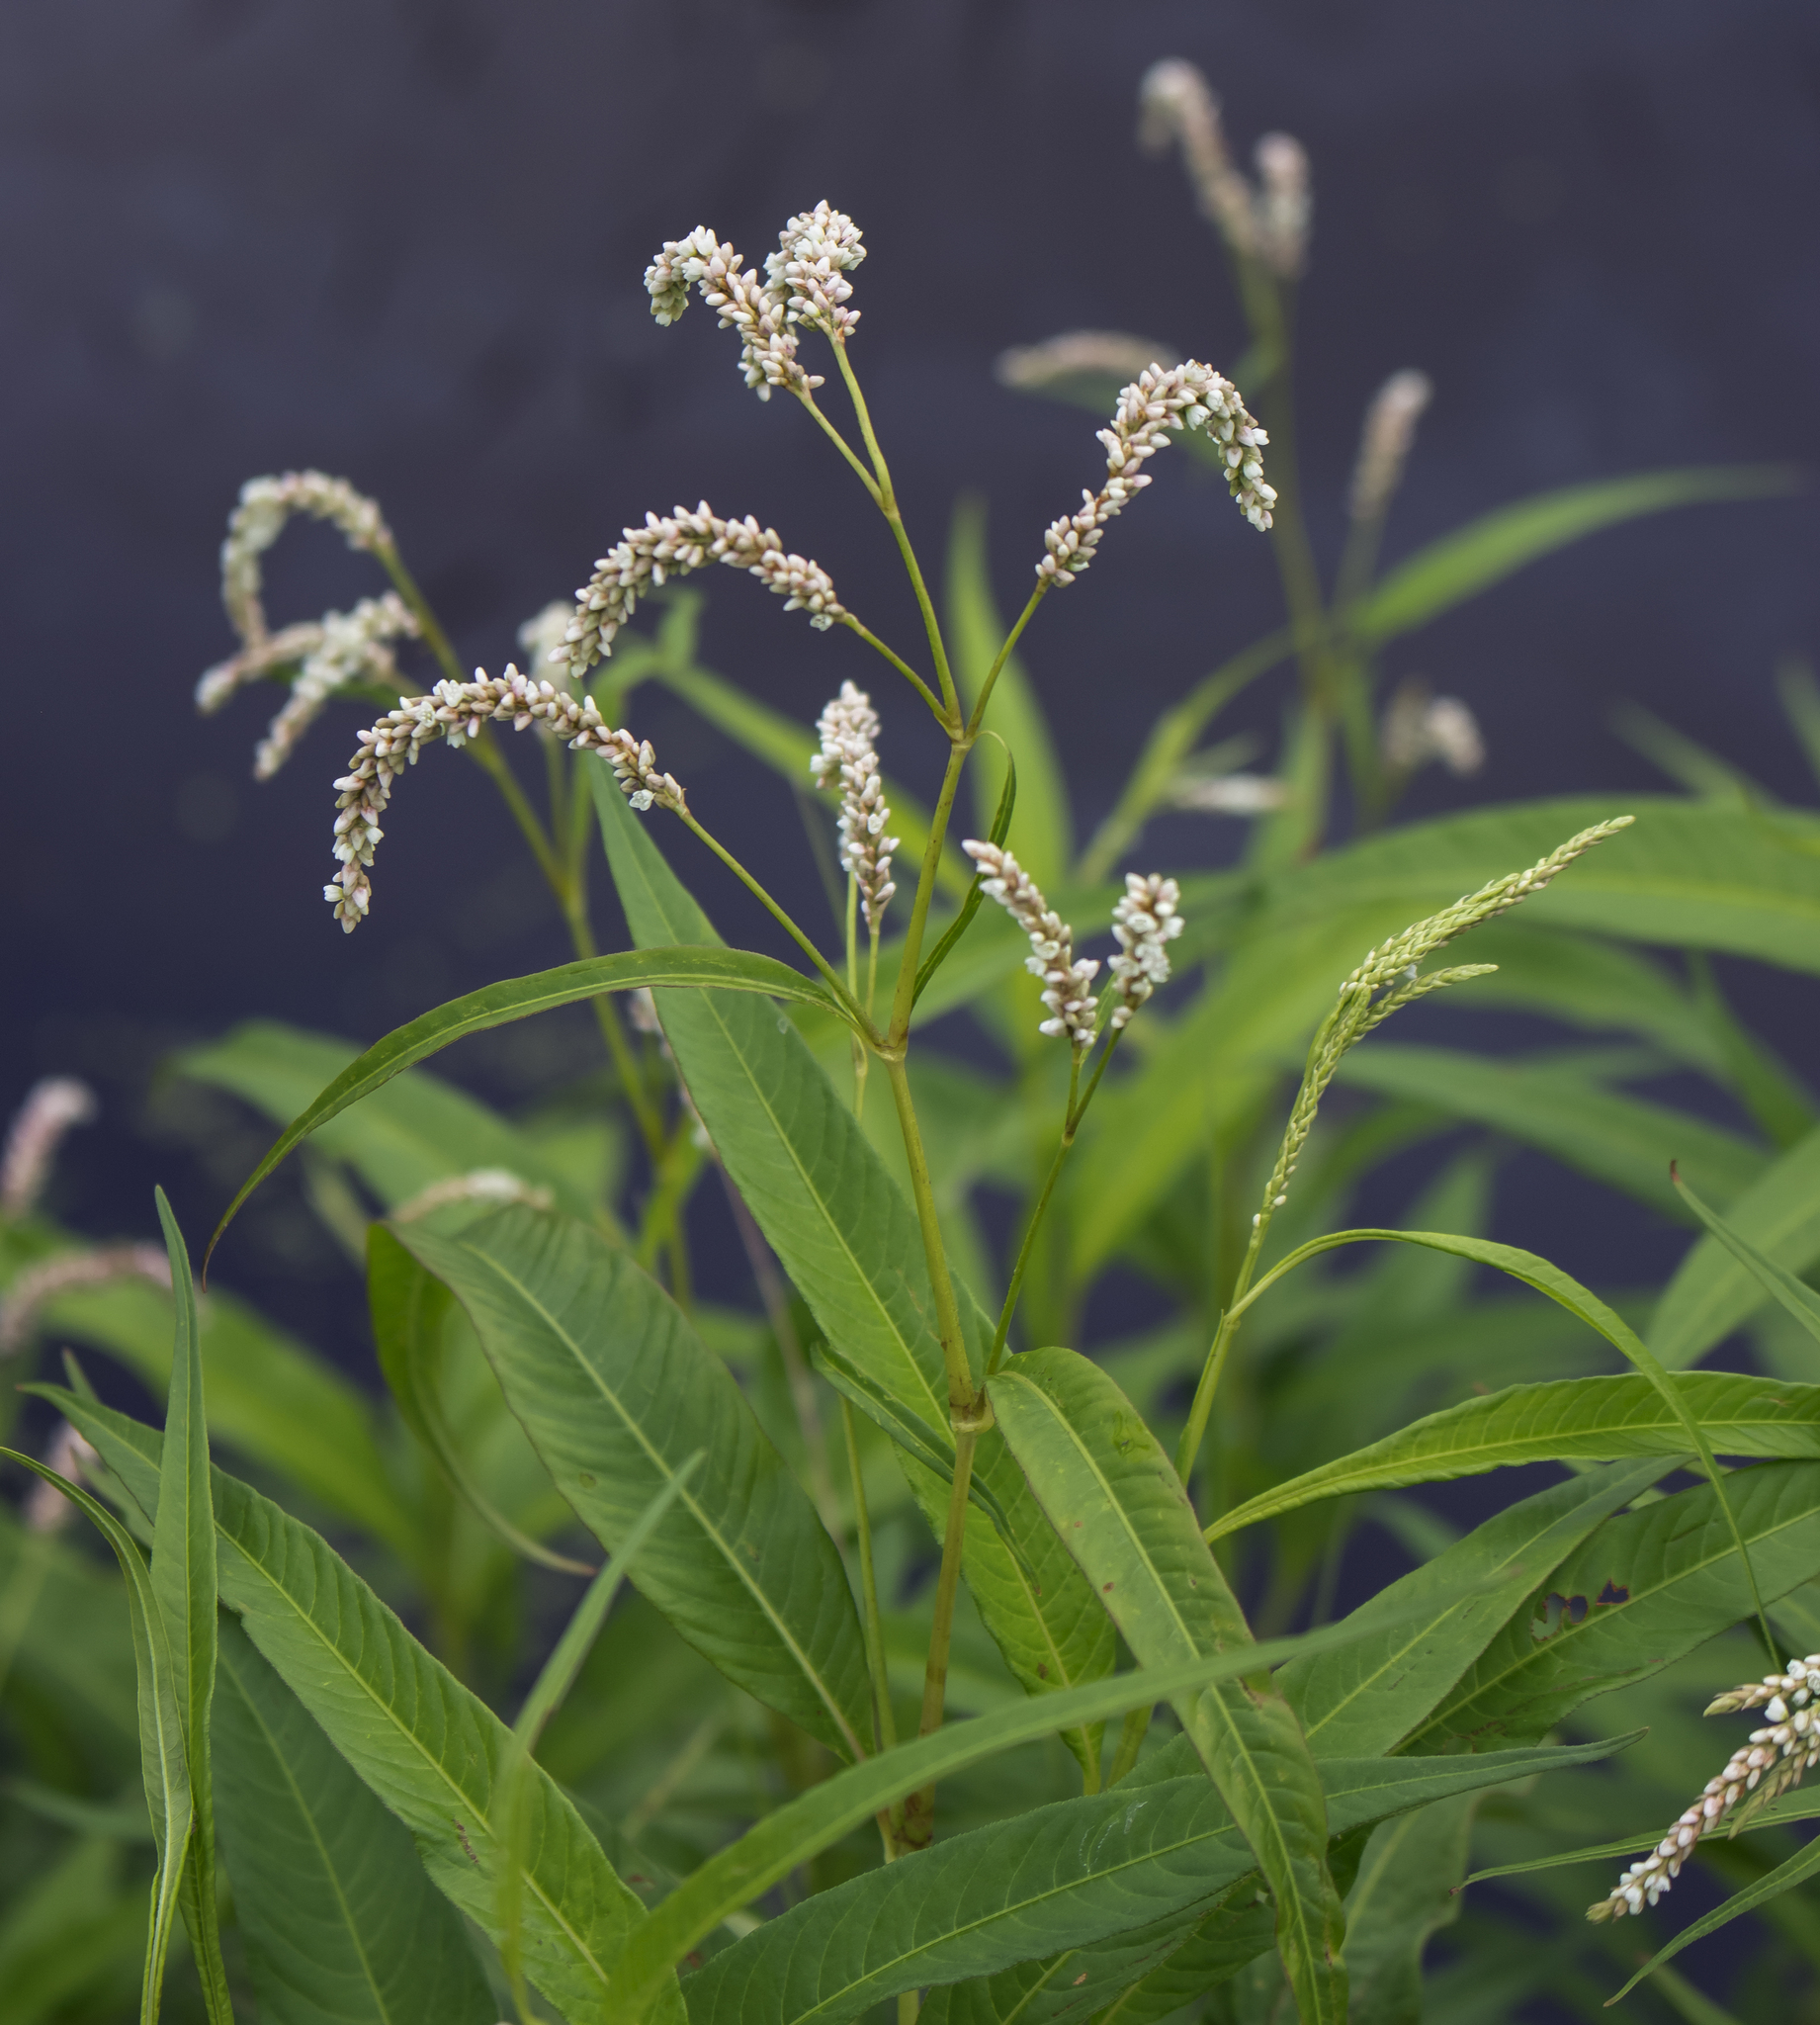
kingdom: Plantae
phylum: Tracheophyta
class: Magnoliopsida
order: Caryophyllales
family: Polygonaceae
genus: Persicaria
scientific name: Persicaria lapathifolia
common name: Curlytop knotweed
